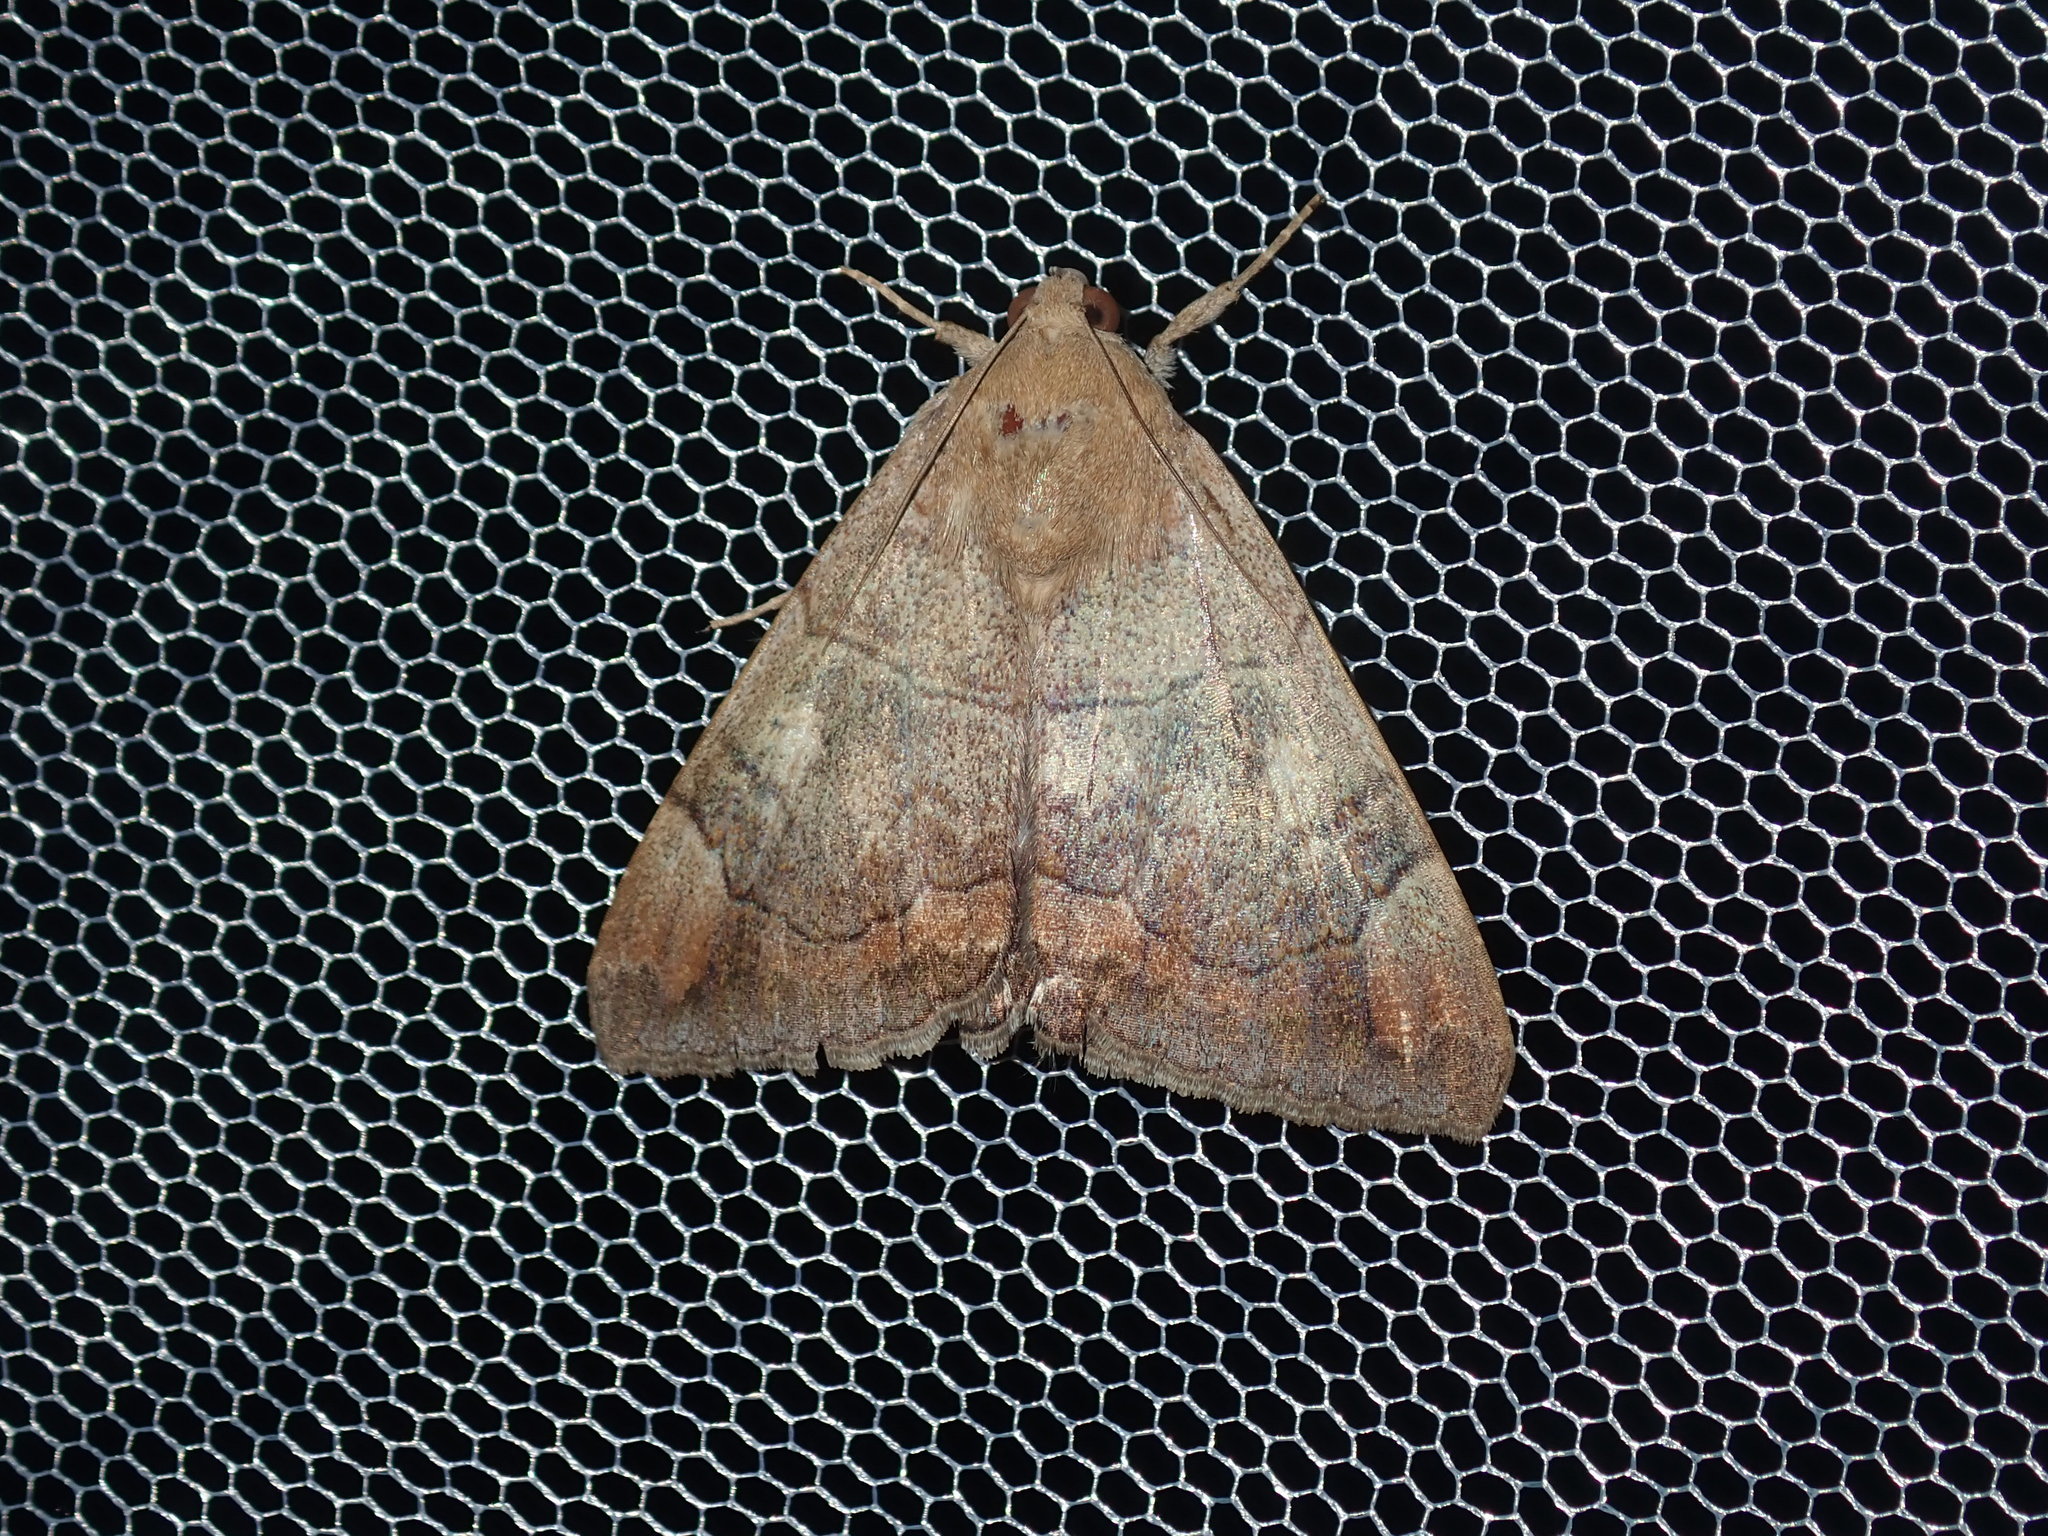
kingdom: Animalia
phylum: Arthropoda
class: Insecta
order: Lepidoptera
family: Erebidae
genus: Achaea
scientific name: Achaea janata
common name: Croton caterpillar
